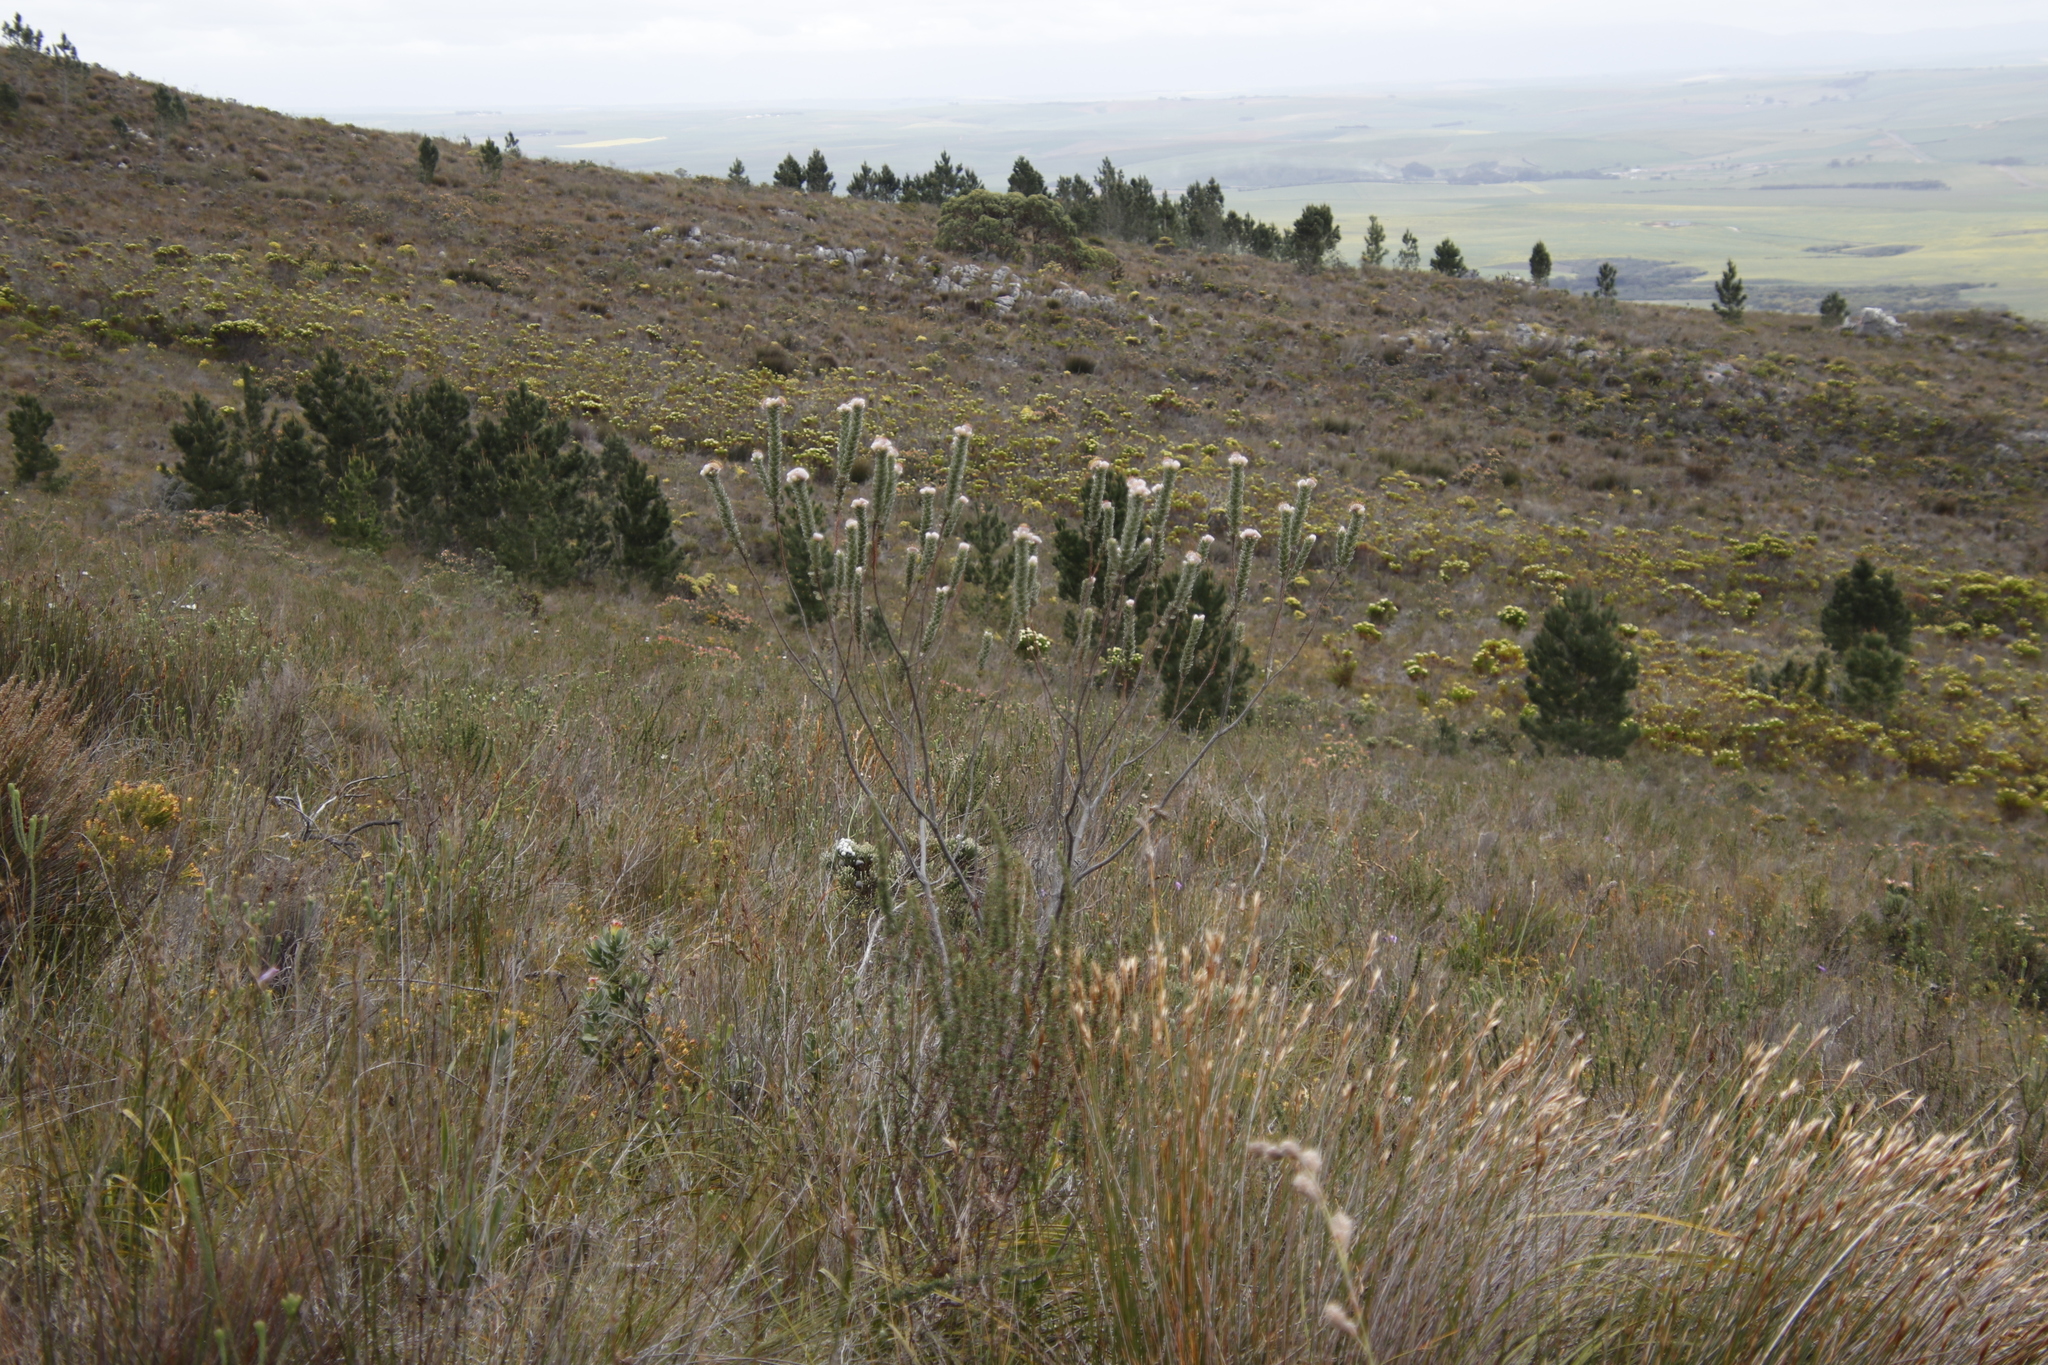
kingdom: Plantae
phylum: Tracheophyta
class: Pinopsida
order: Pinales
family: Pinaceae
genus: Pinus
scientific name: Pinus pinaster
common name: Maritime pine
